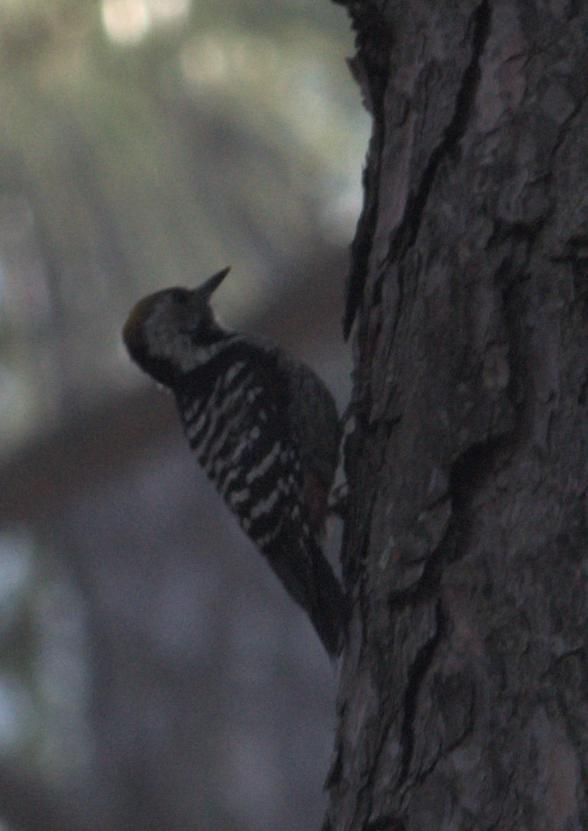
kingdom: Animalia
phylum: Chordata
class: Aves
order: Piciformes
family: Picidae
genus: Dendrocoptes
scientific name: Dendrocoptes auriceps
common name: Brown-fronted woodpecker
